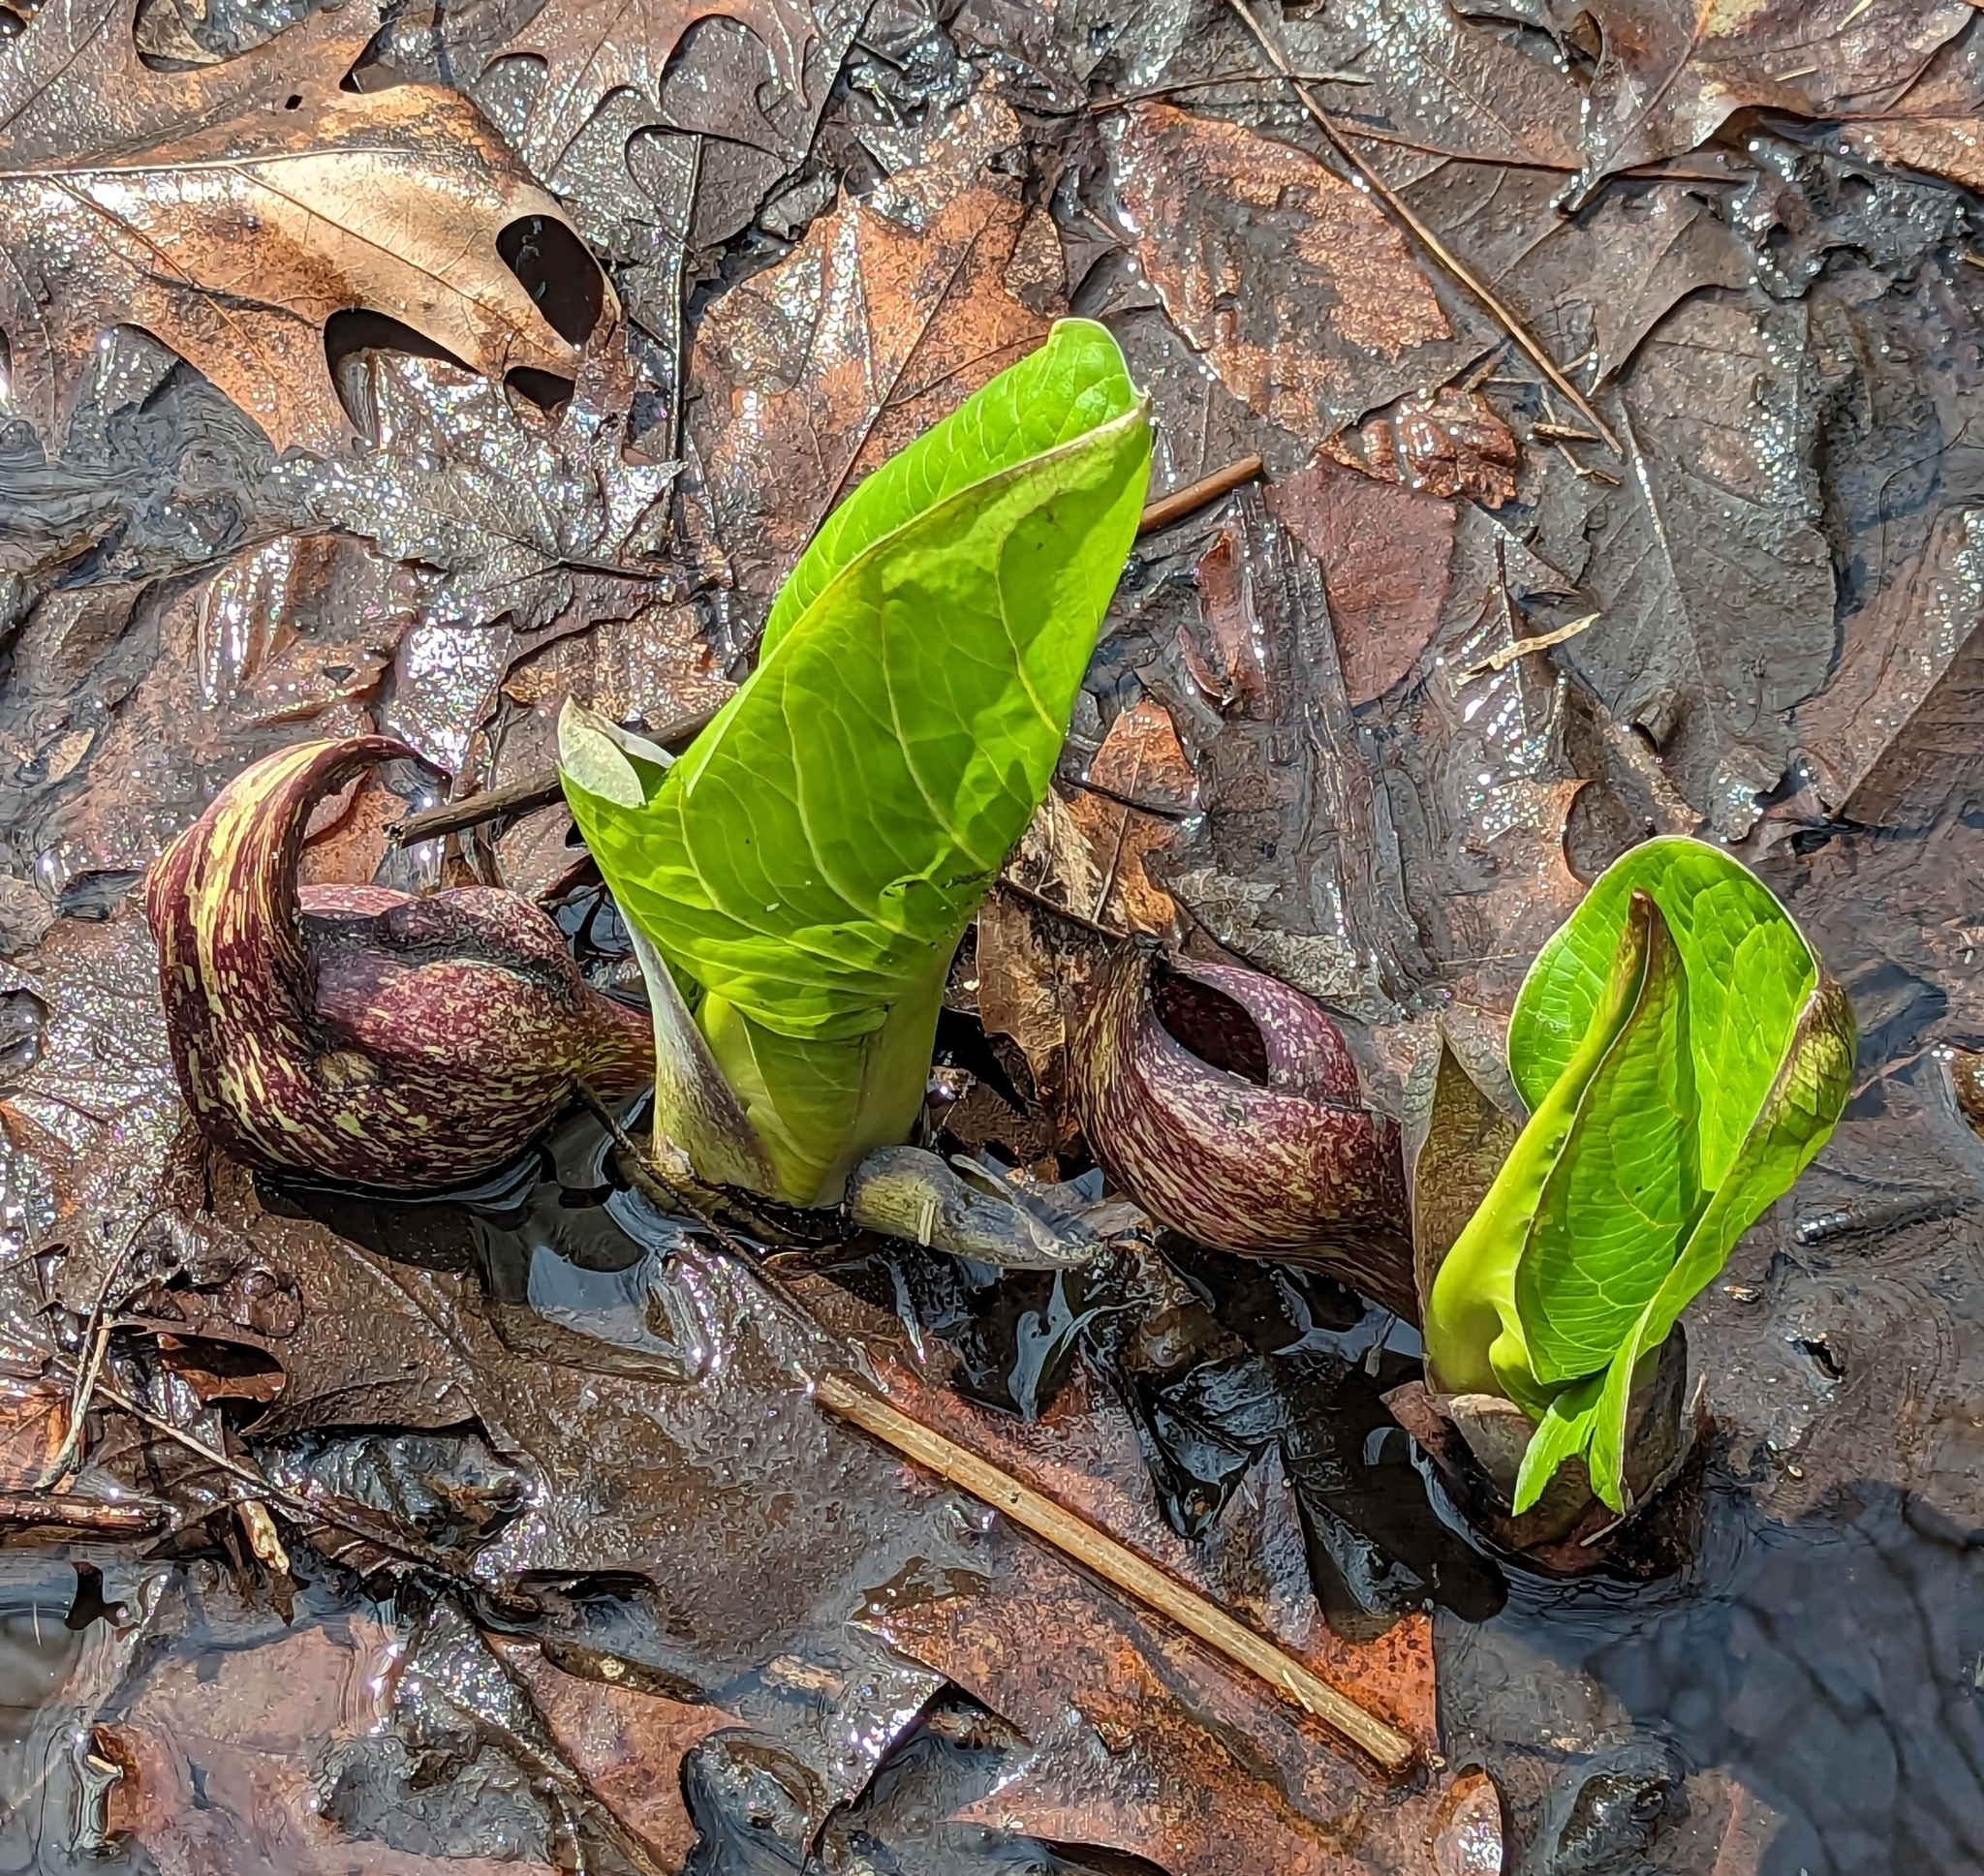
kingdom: Plantae
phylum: Tracheophyta
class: Liliopsida
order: Alismatales
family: Araceae
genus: Symplocarpus
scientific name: Symplocarpus foetidus
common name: Eastern skunk cabbage
